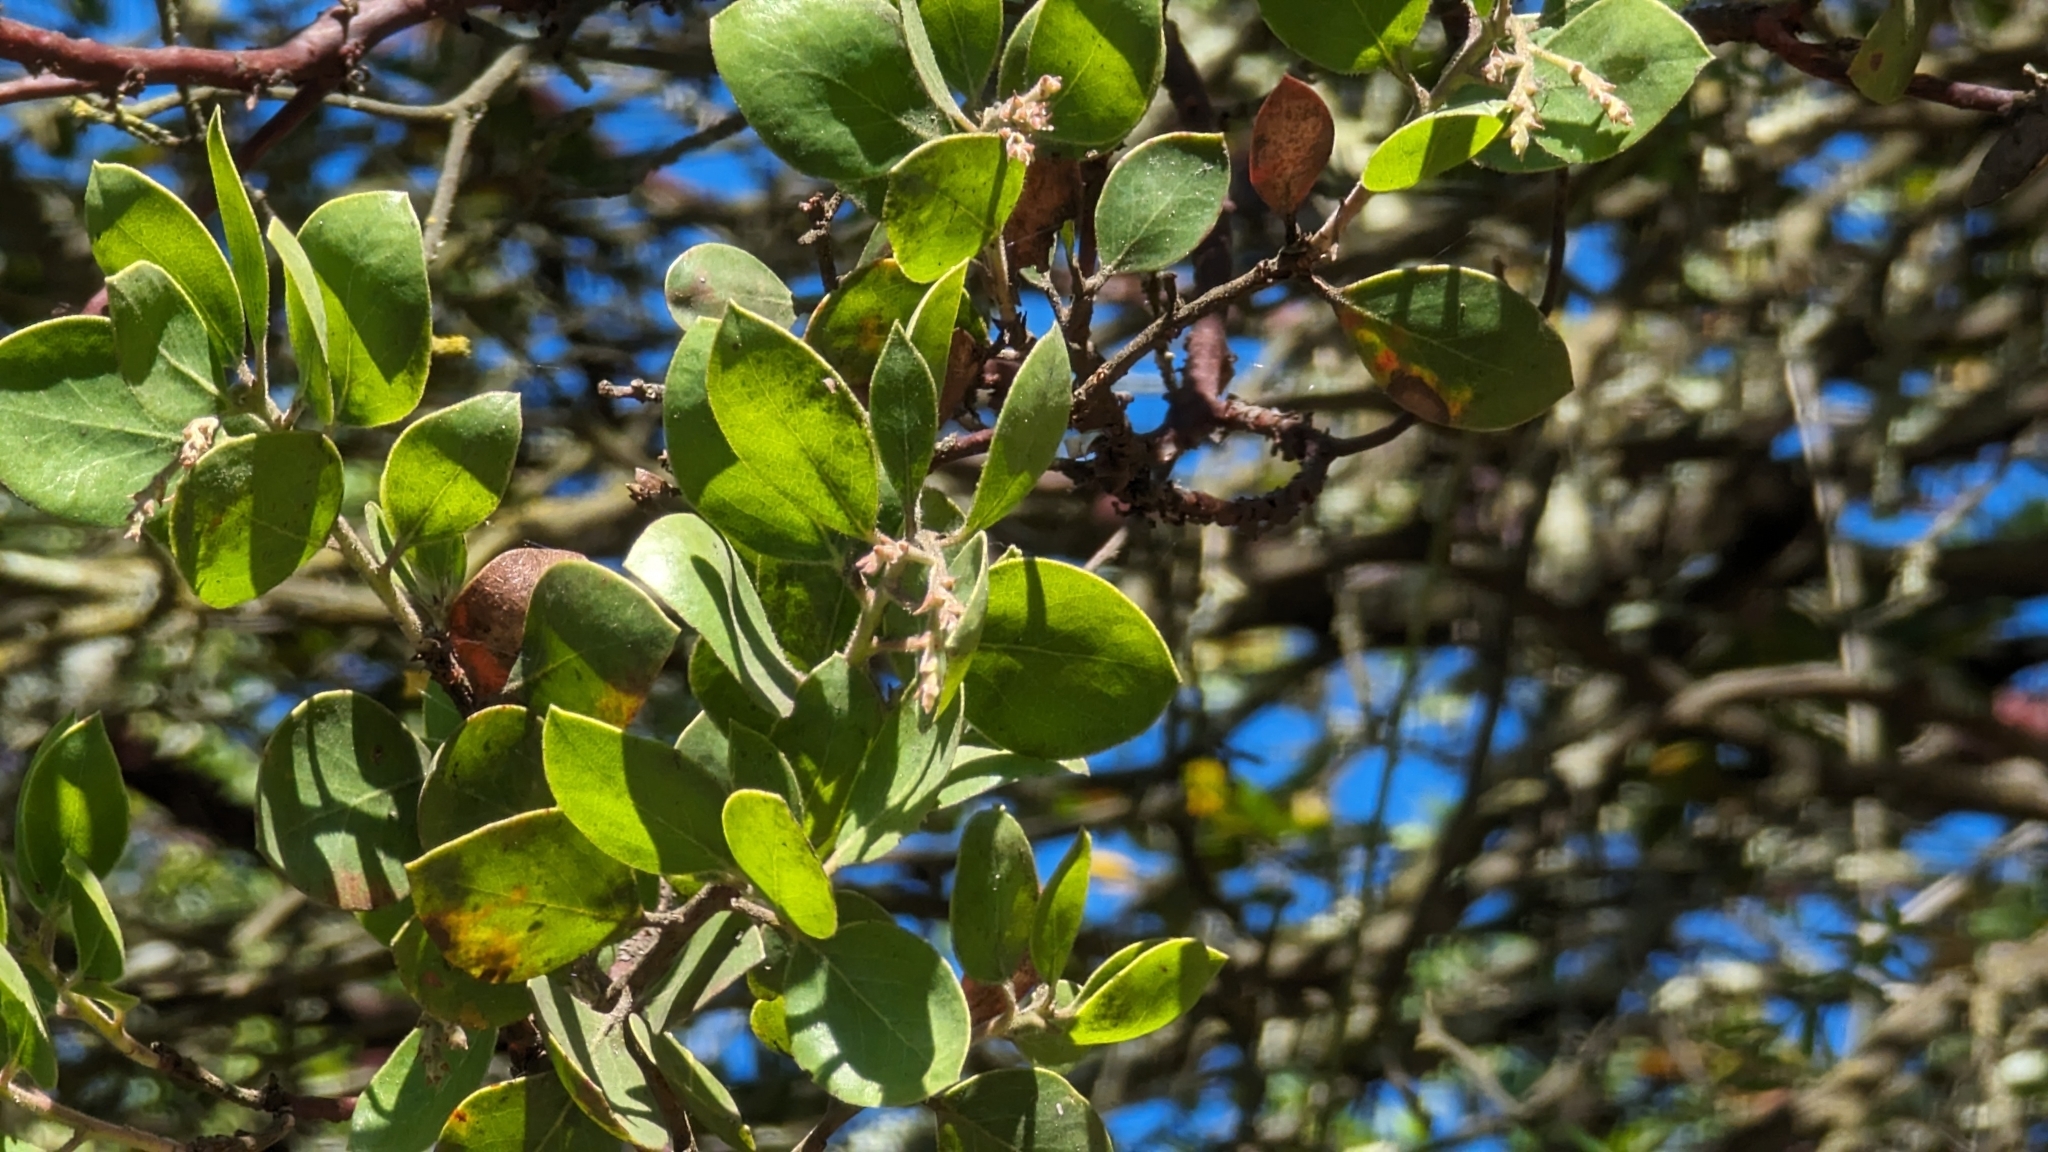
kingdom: Plantae
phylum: Tracheophyta
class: Magnoliopsida
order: Ericales
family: Ericaceae
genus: Arctostaphylos
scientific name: Arctostaphylos manzanita
